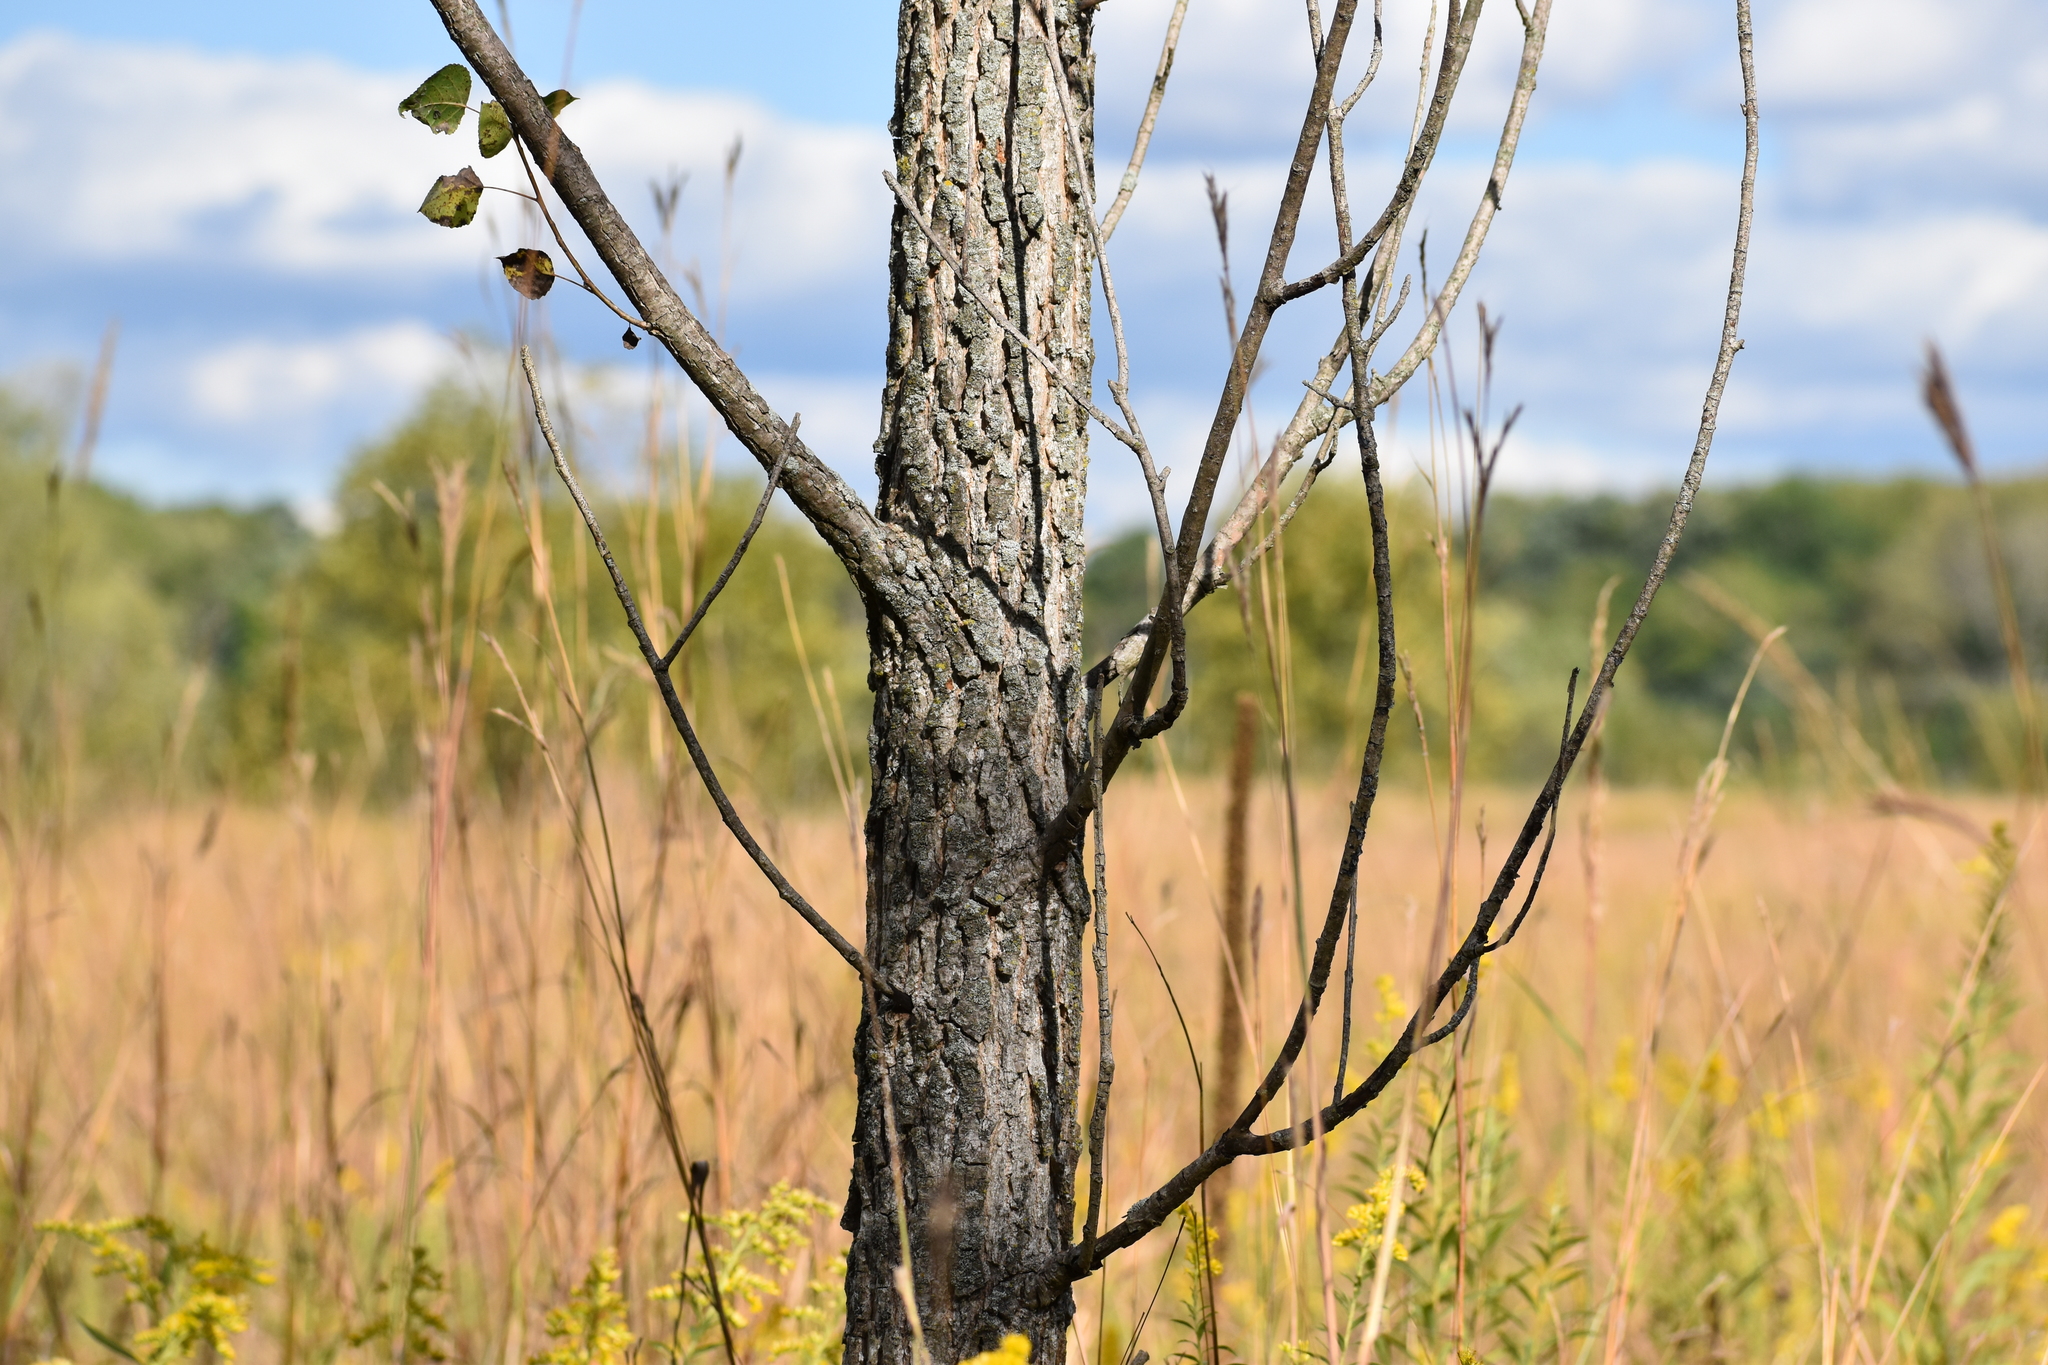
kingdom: Plantae
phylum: Tracheophyta
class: Magnoliopsida
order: Malpighiales
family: Salicaceae
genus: Populus
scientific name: Populus deltoides
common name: Eastern cottonwood
